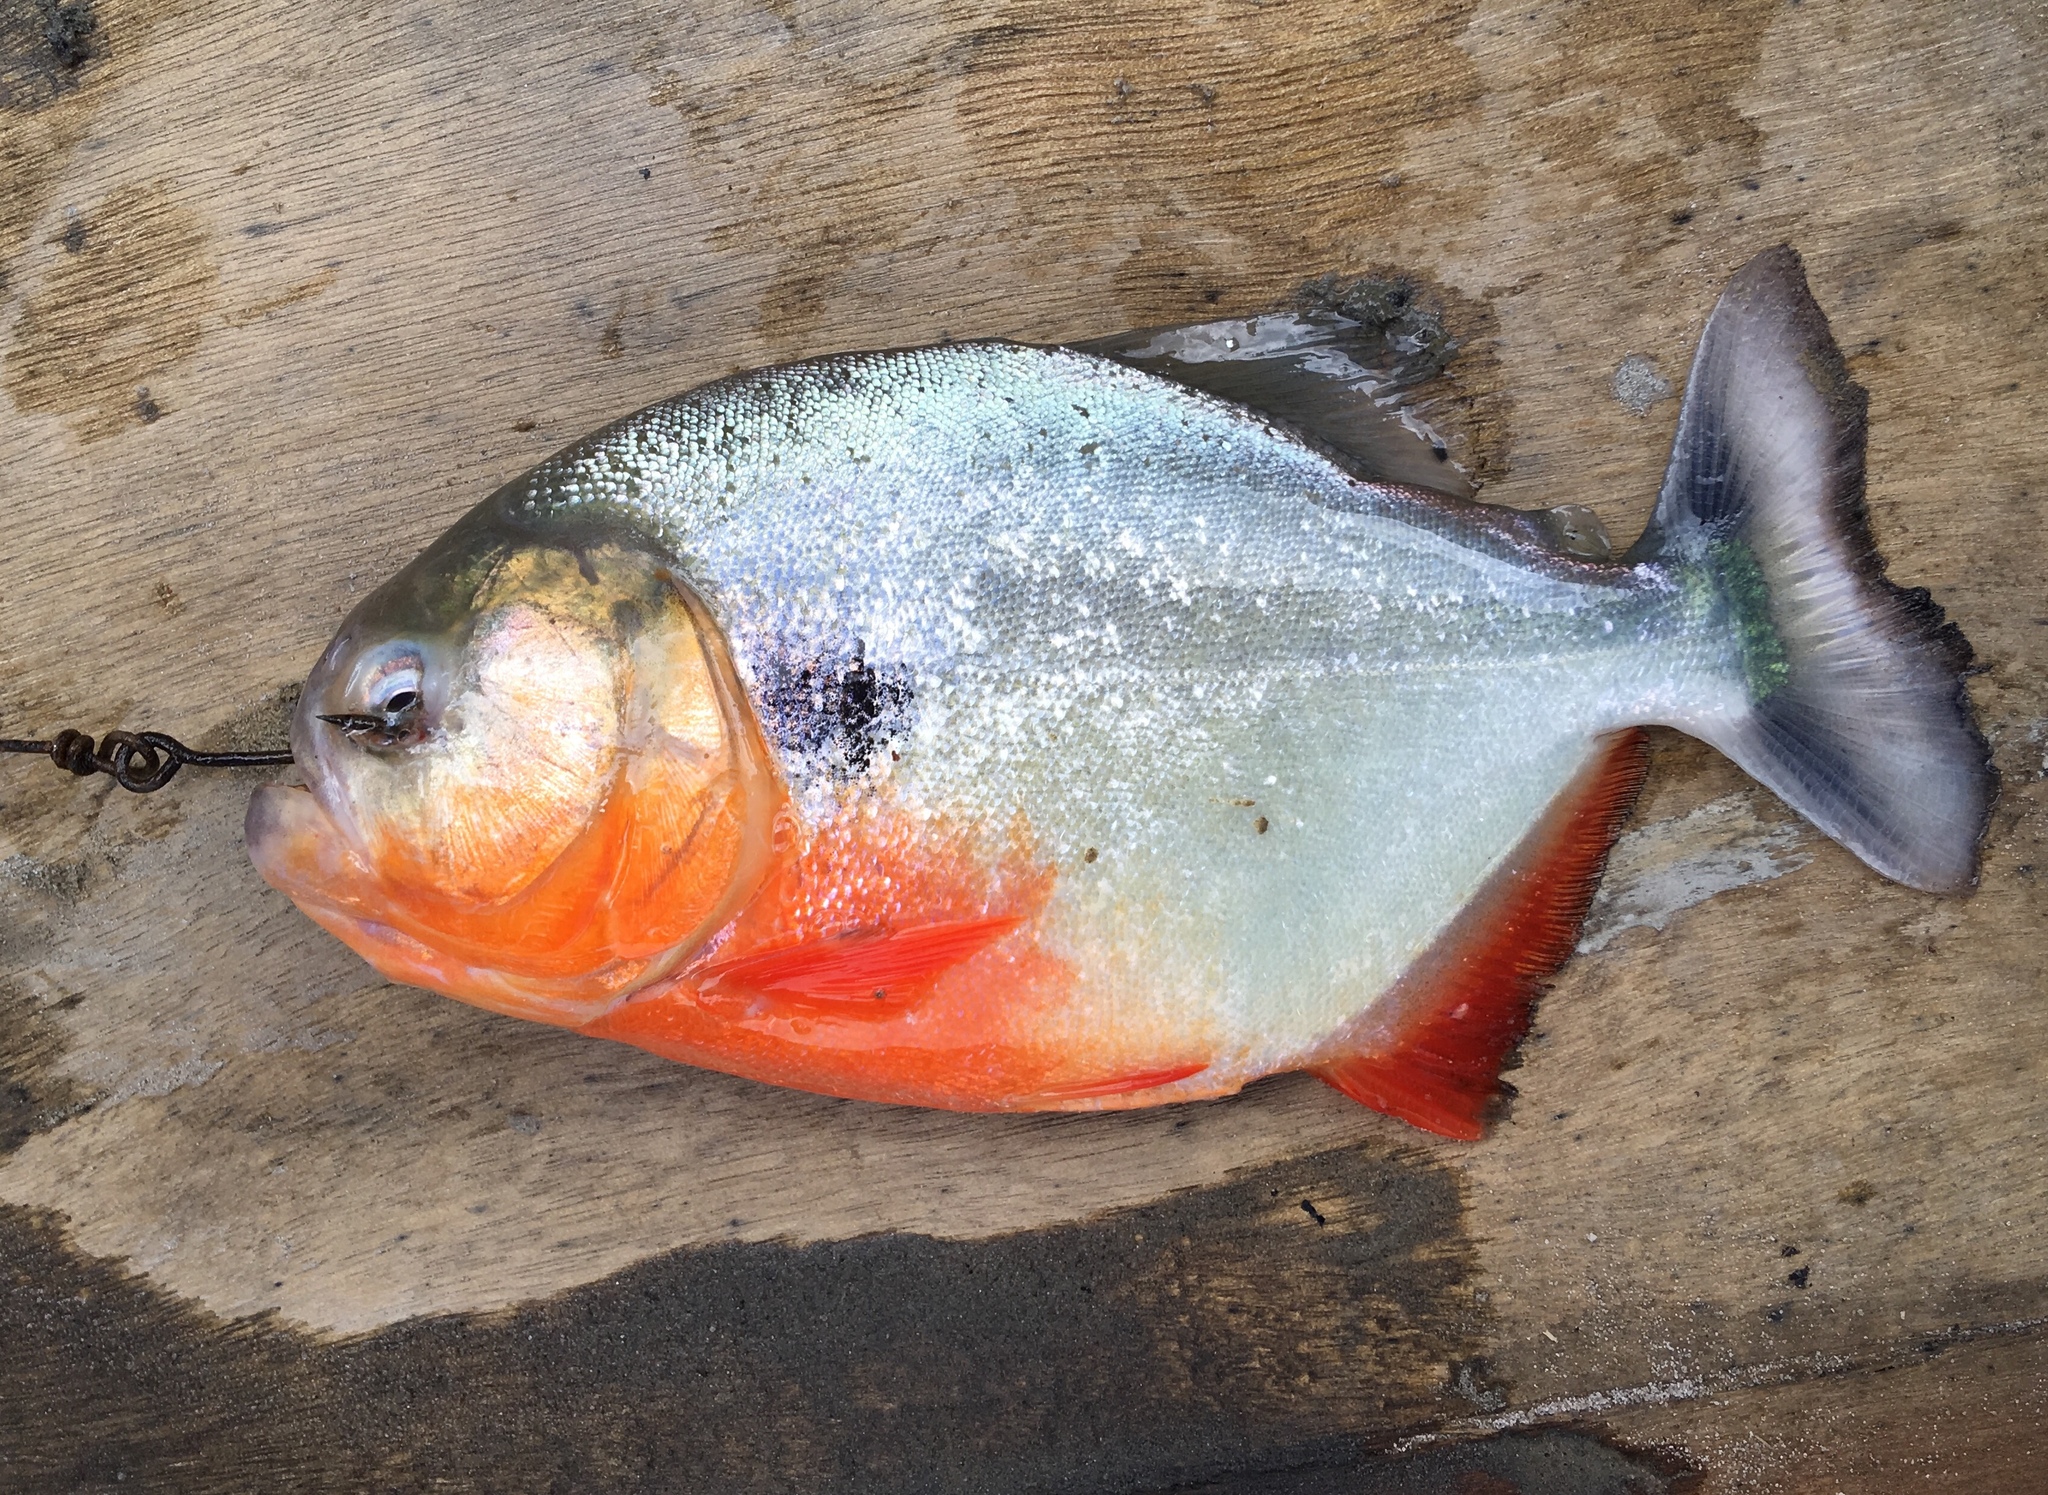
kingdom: Animalia
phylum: Chordata
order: Characiformes
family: Serrasalmidae
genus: Pygocentrus
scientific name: Pygocentrus cariba
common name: Black spot piranha
